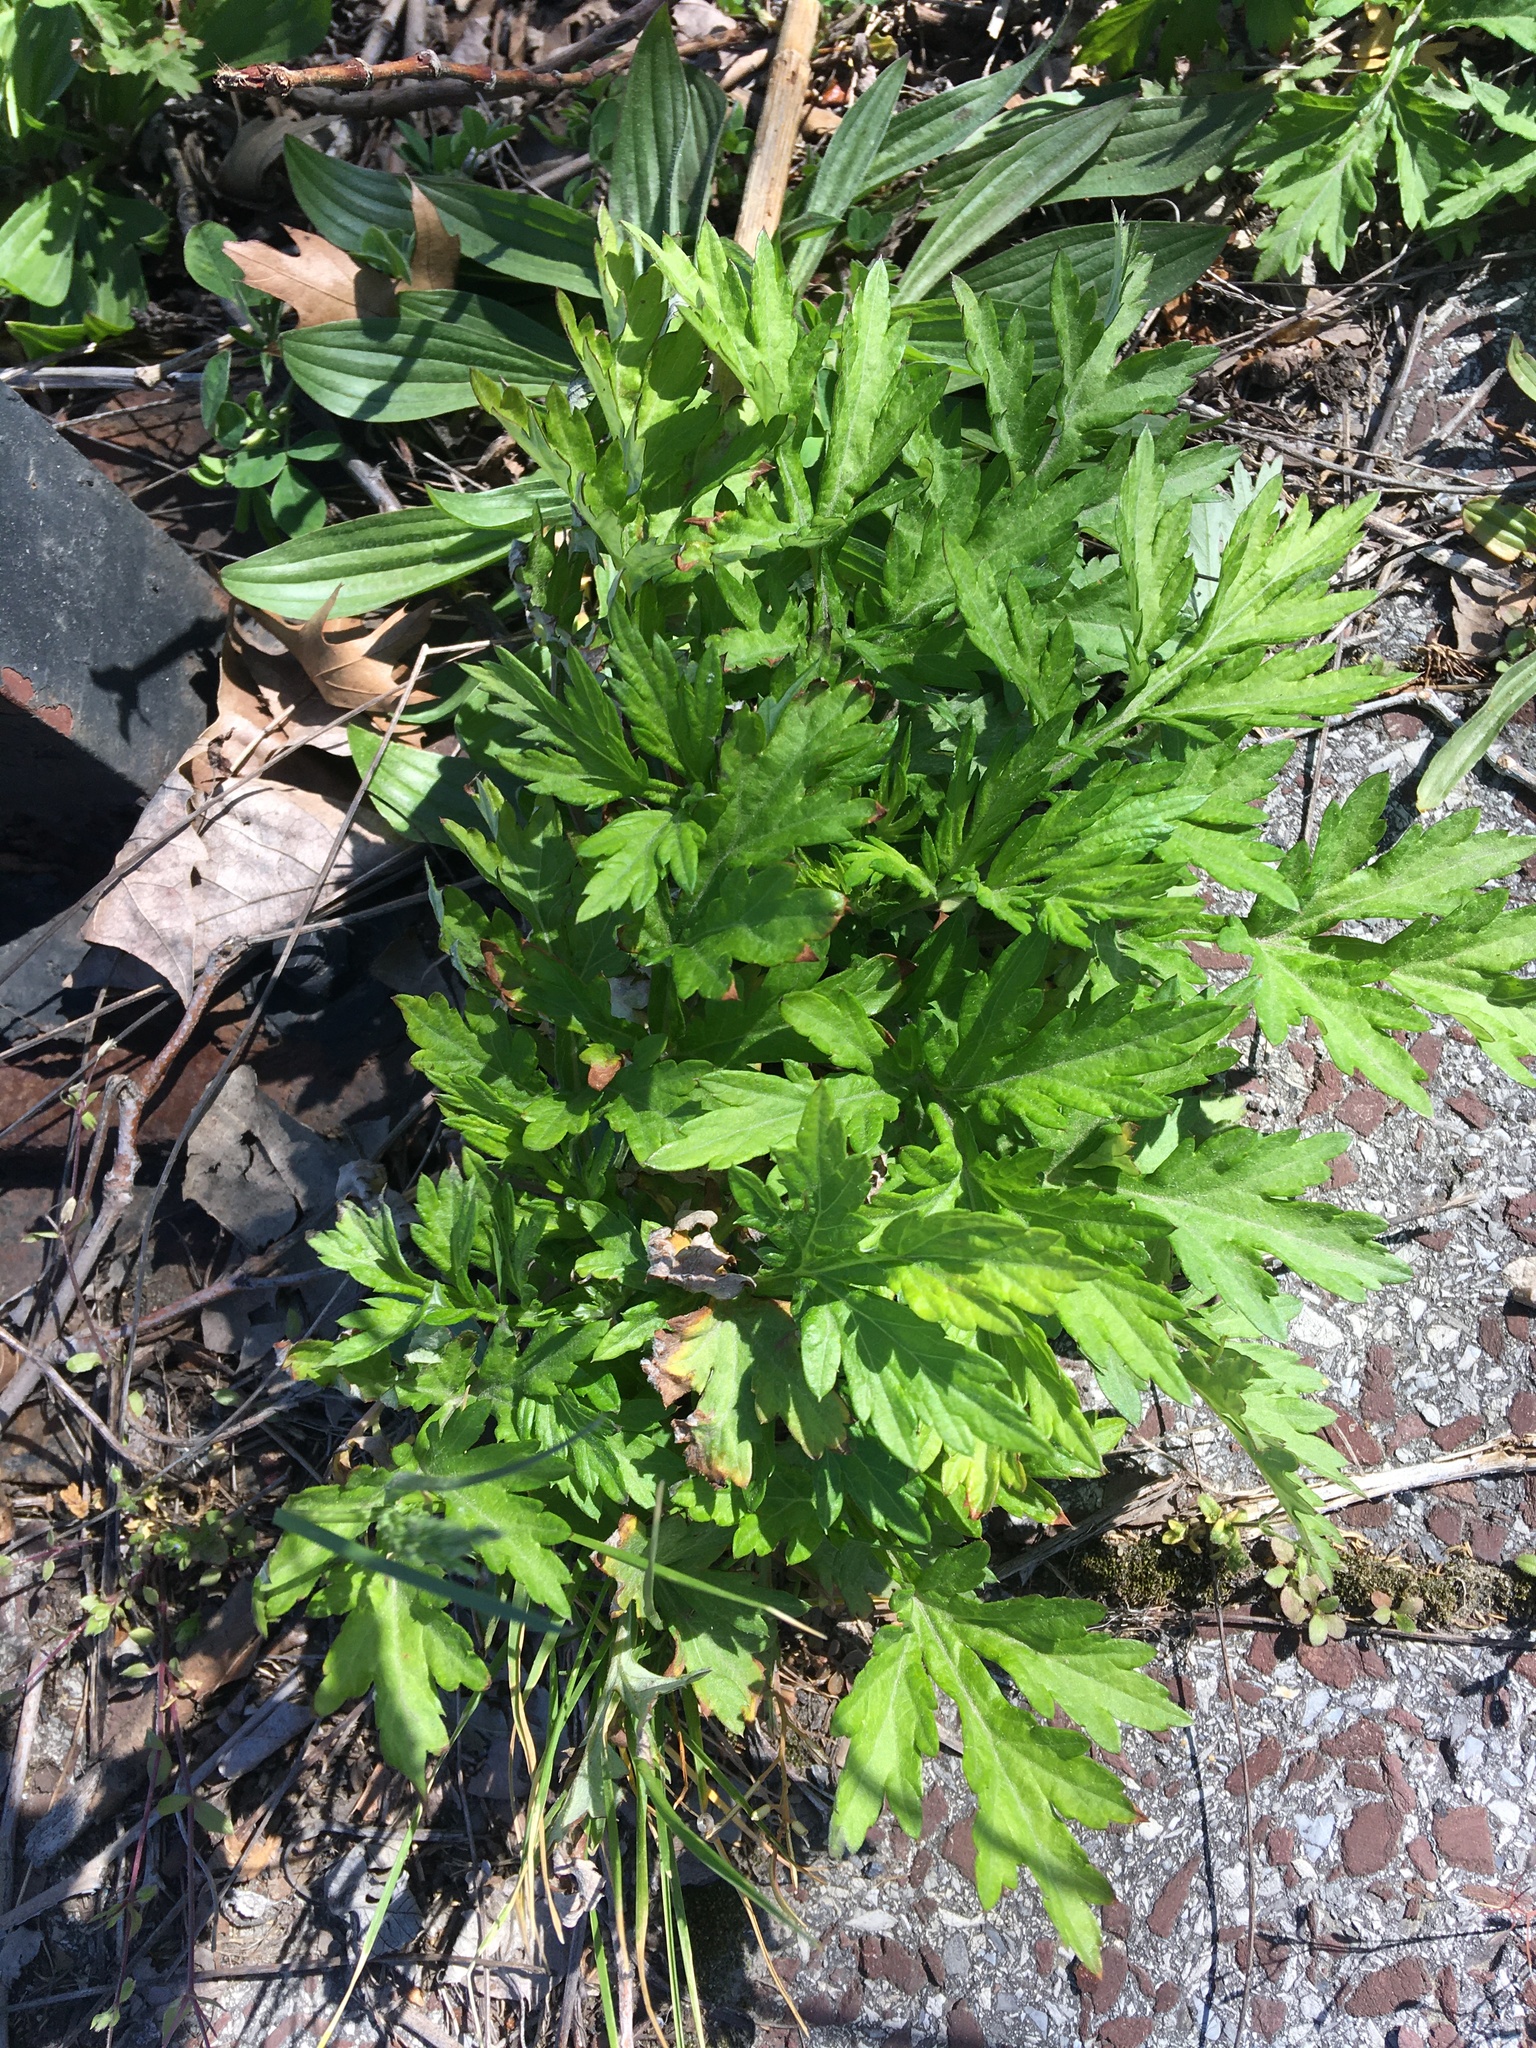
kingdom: Plantae
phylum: Tracheophyta
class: Magnoliopsida
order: Asterales
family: Asteraceae
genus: Artemisia
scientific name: Artemisia vulgaris
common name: Mugwort
